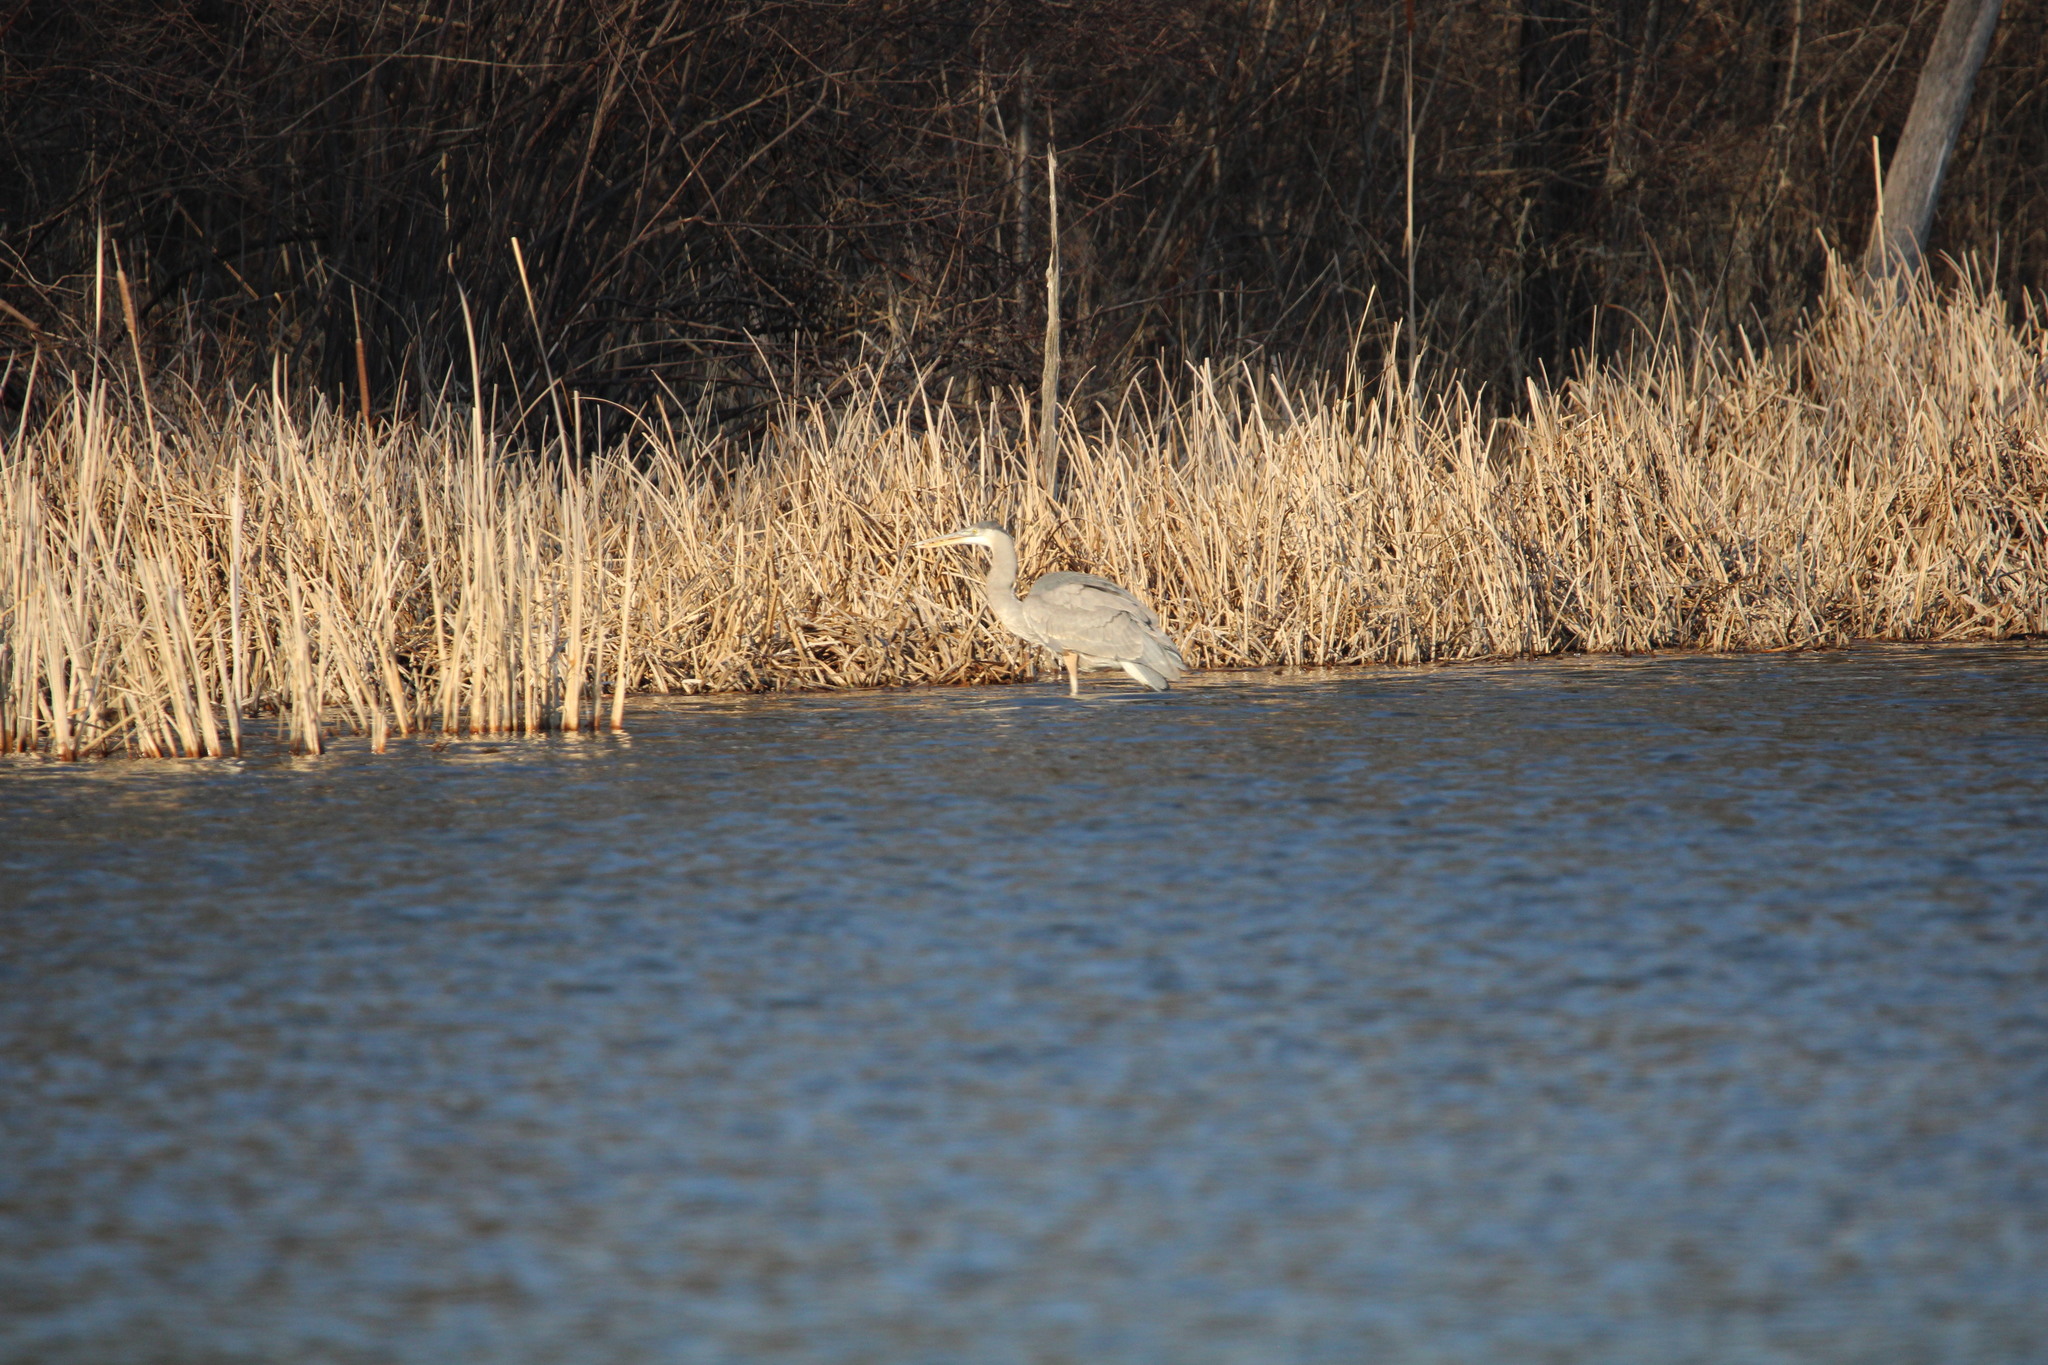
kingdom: Animalia
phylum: Chordata
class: Aves
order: Pelecaniformes
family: Ardeidae
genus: Ardea
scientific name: Ardea herodias
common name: Great blue heron
